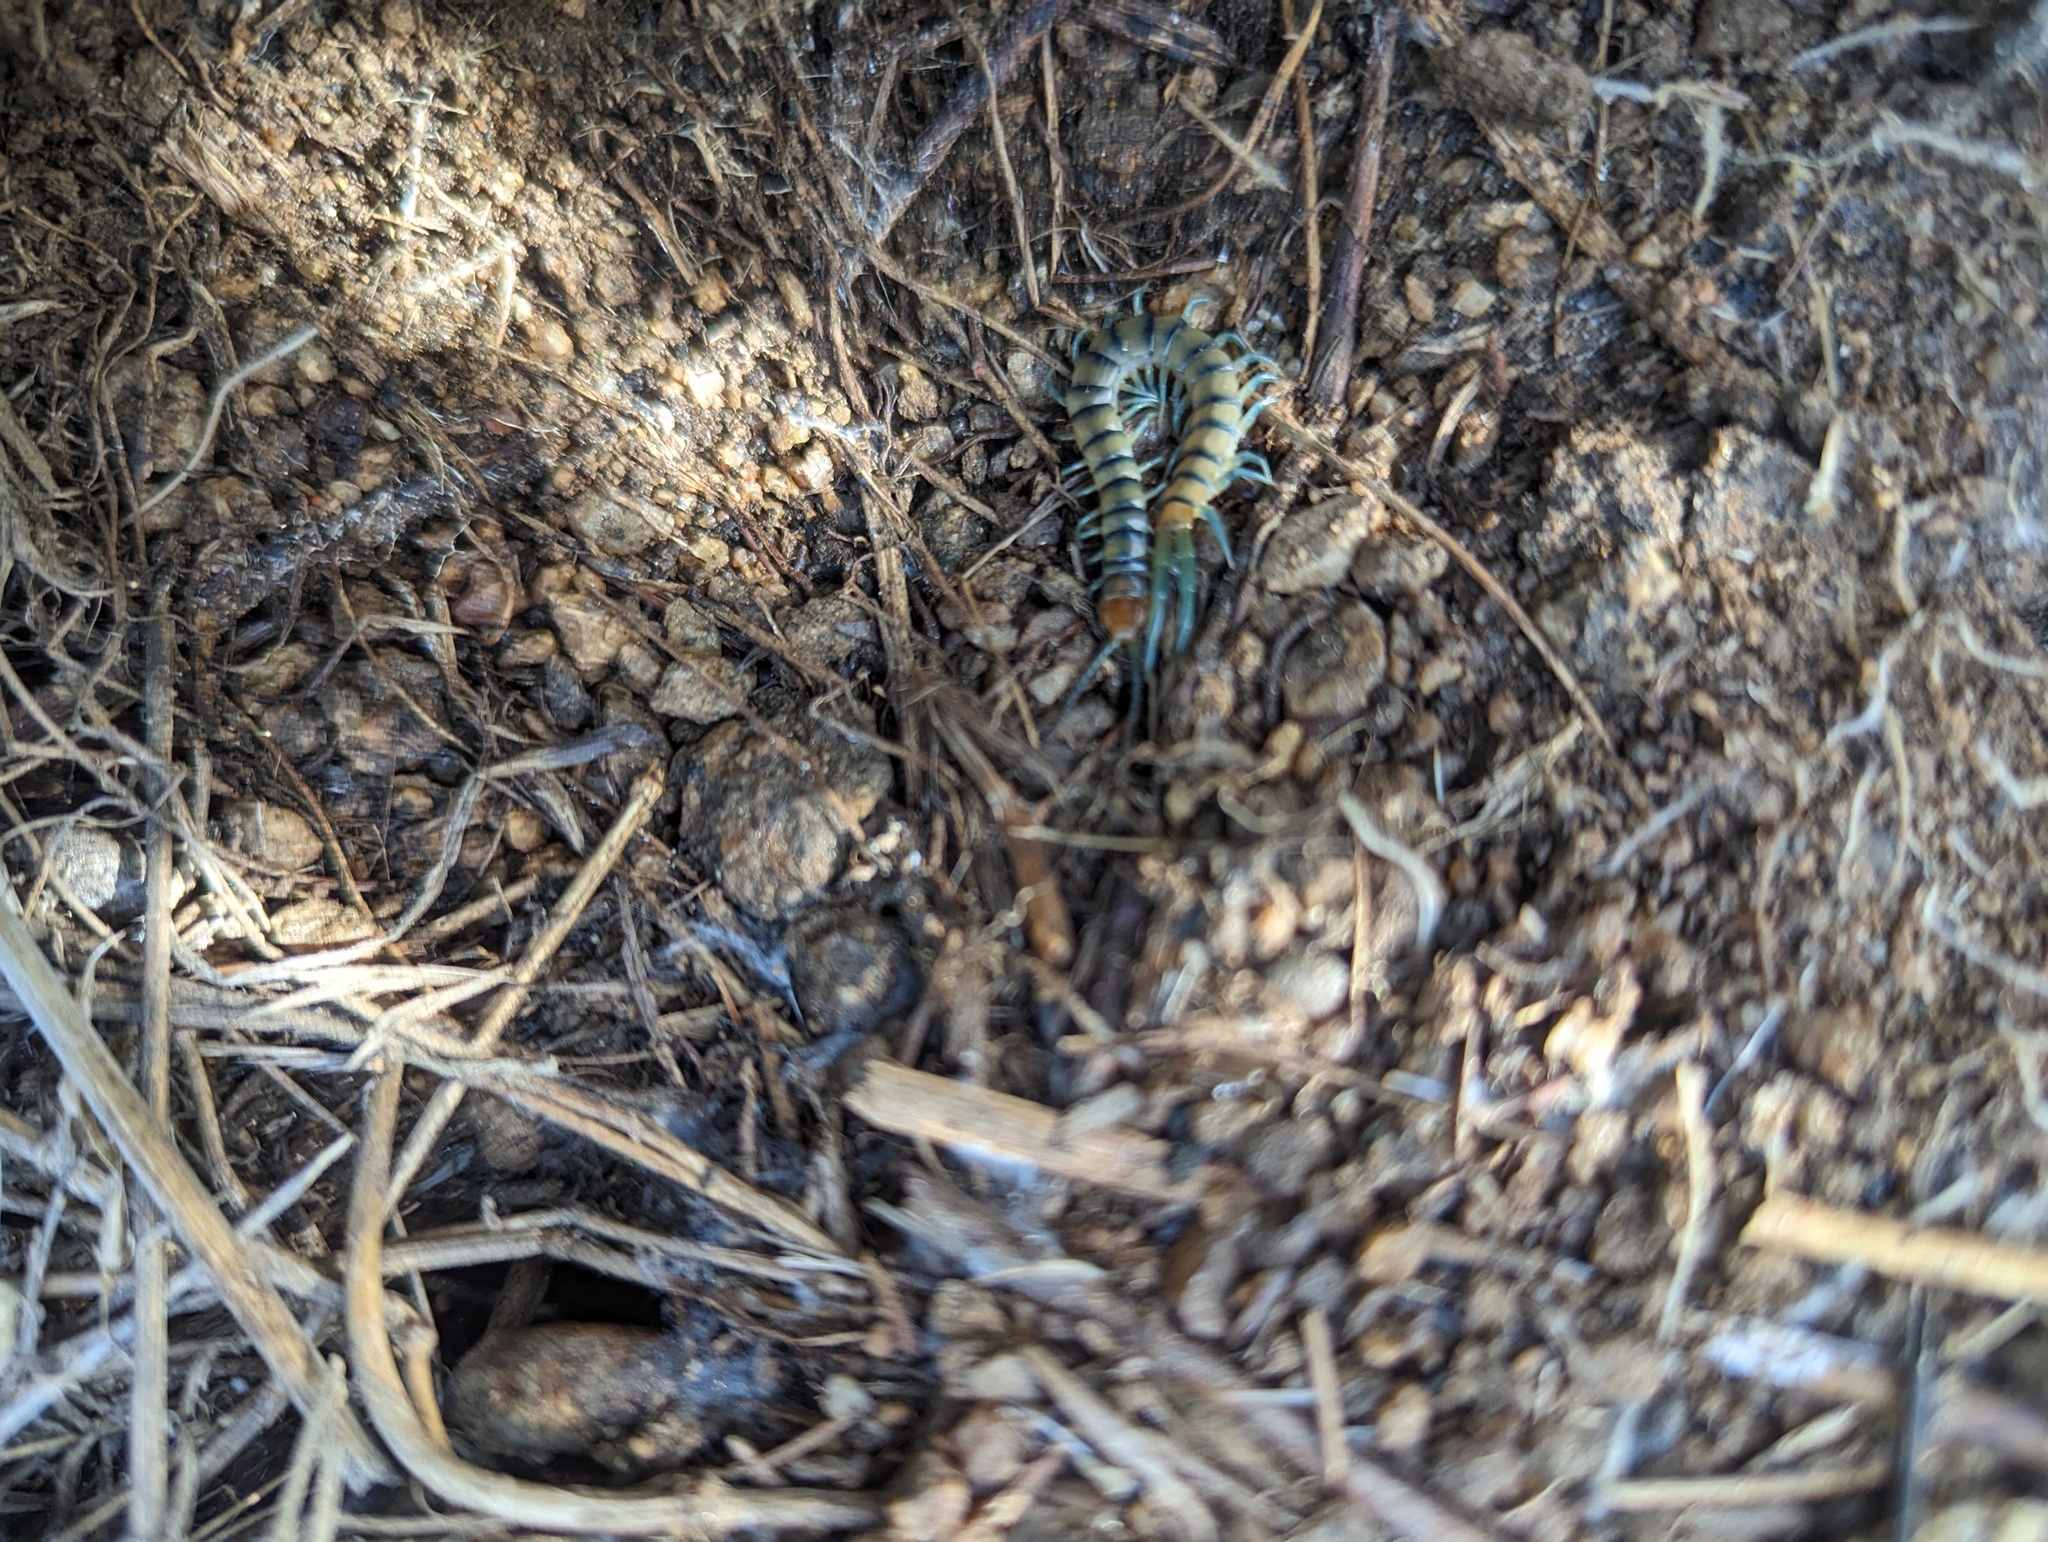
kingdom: Animalia
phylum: Arthropoda
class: Chilopoda
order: Scolopendromorpha
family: Scolopendridae
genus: Scolopendra
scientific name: Scolopendra polymorpha
